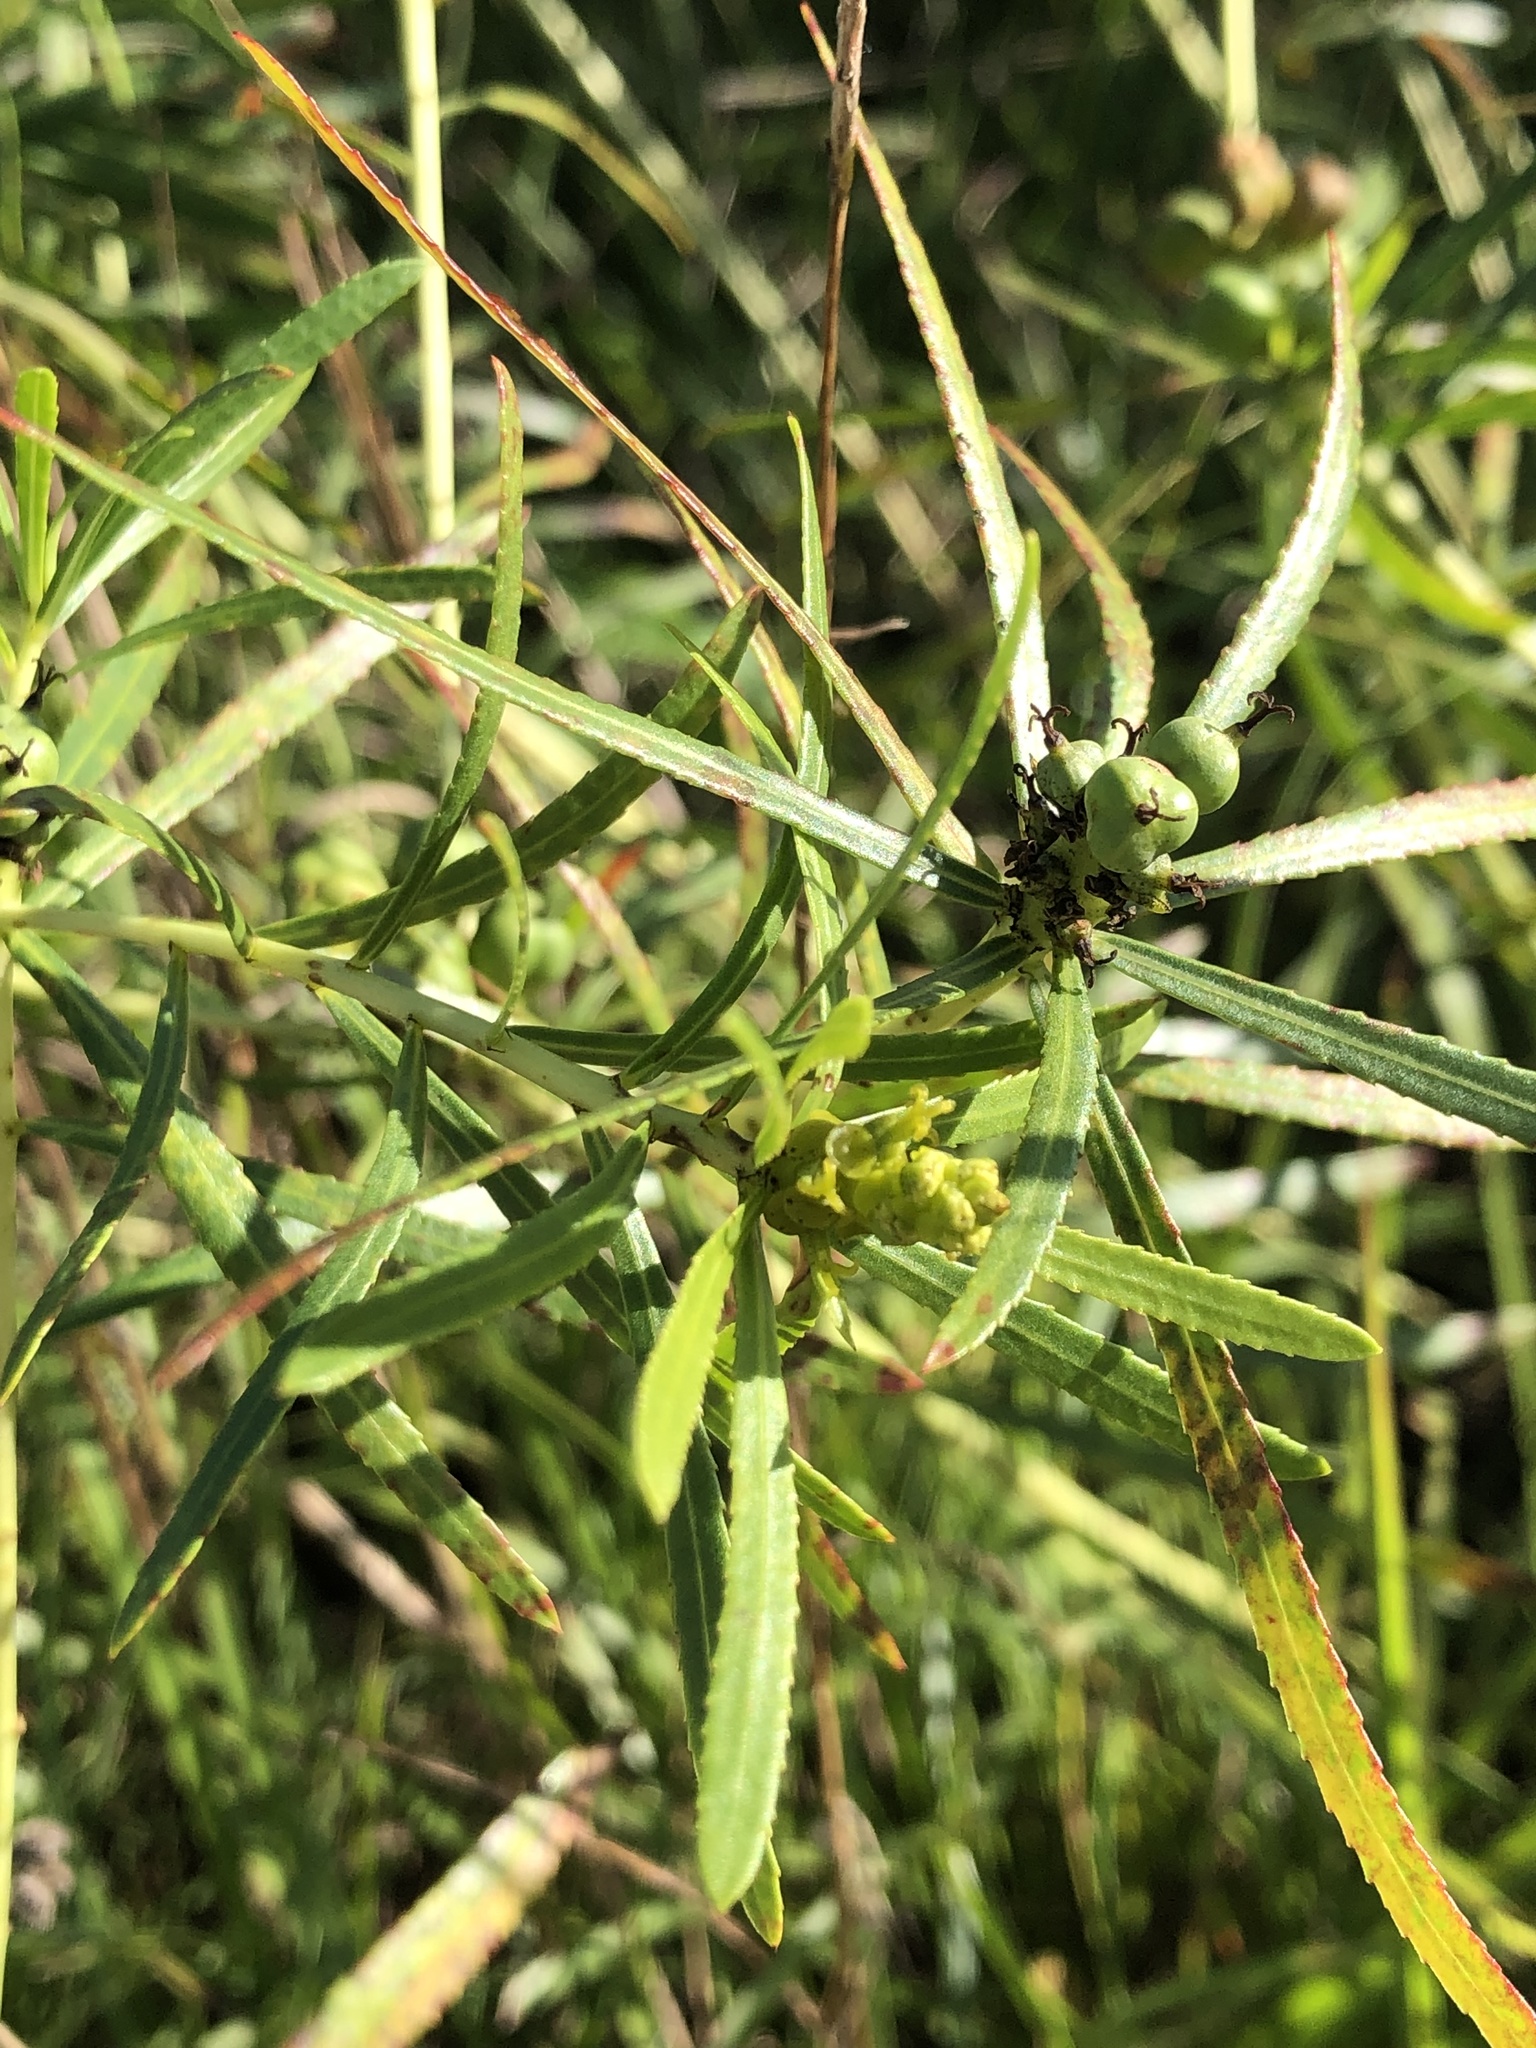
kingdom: Plantae
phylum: Tracheophyta
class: Magnoliopsida
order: Malpighiales
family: Euphorbiaceae
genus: Stillingia
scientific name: Stillingia texana
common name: Texas stillingia
